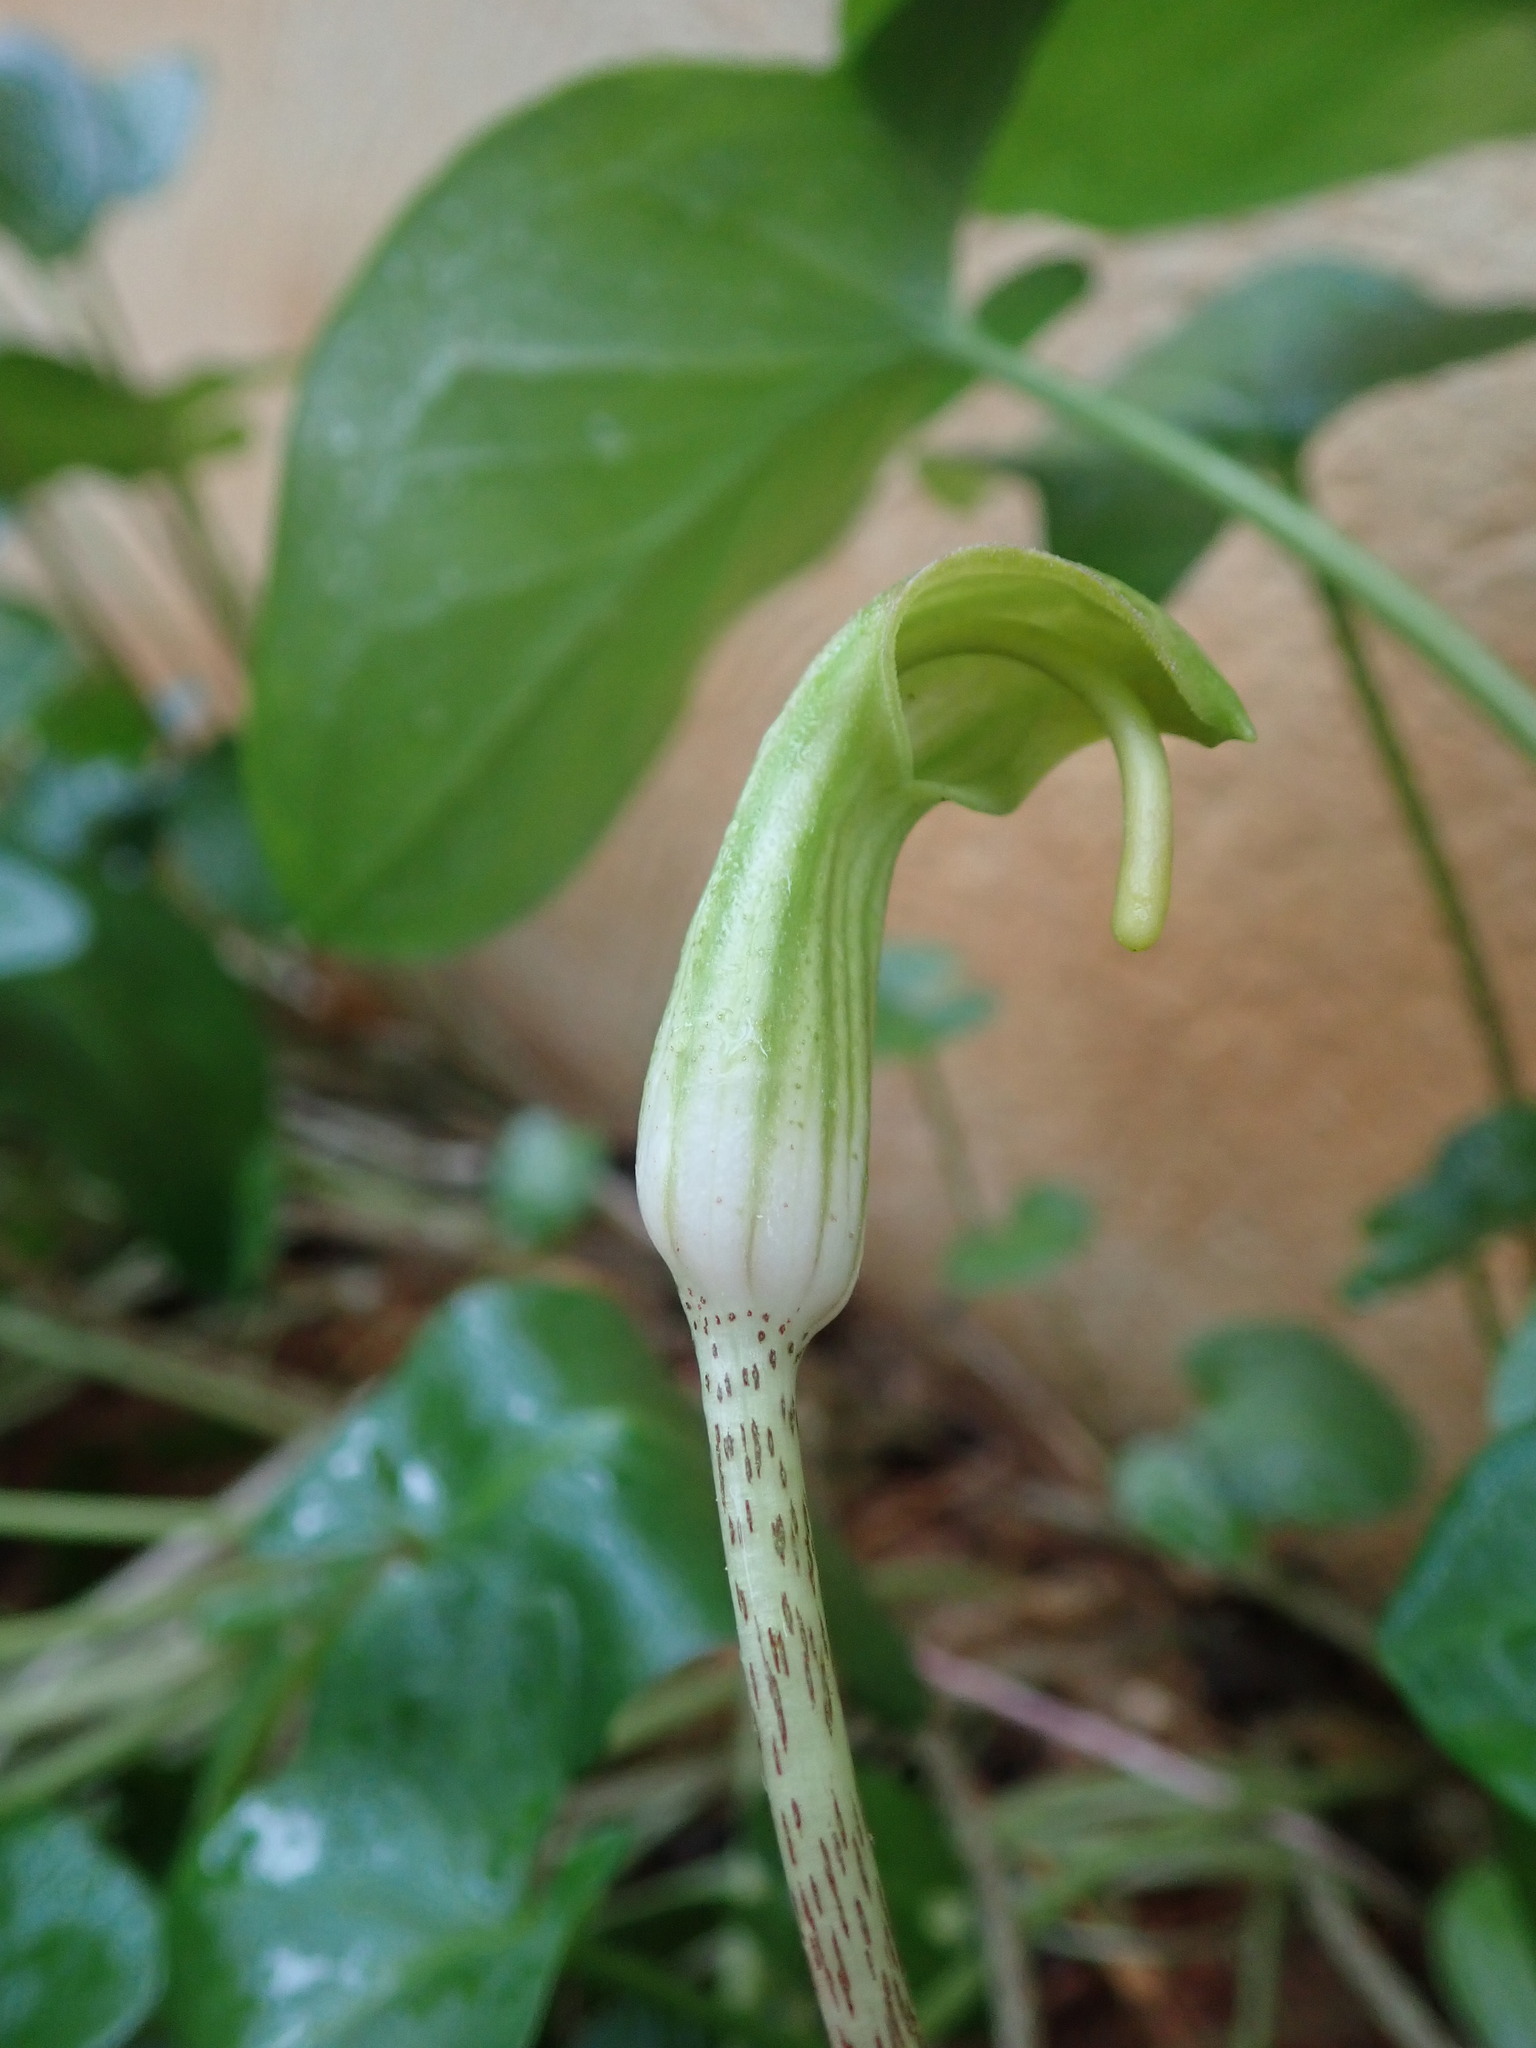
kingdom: Plantae
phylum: Tracheophyta
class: Liliopsida
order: Alismatales
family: Araceae
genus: Arisarum
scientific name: Arisarum vulgare
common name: Common arisarum
